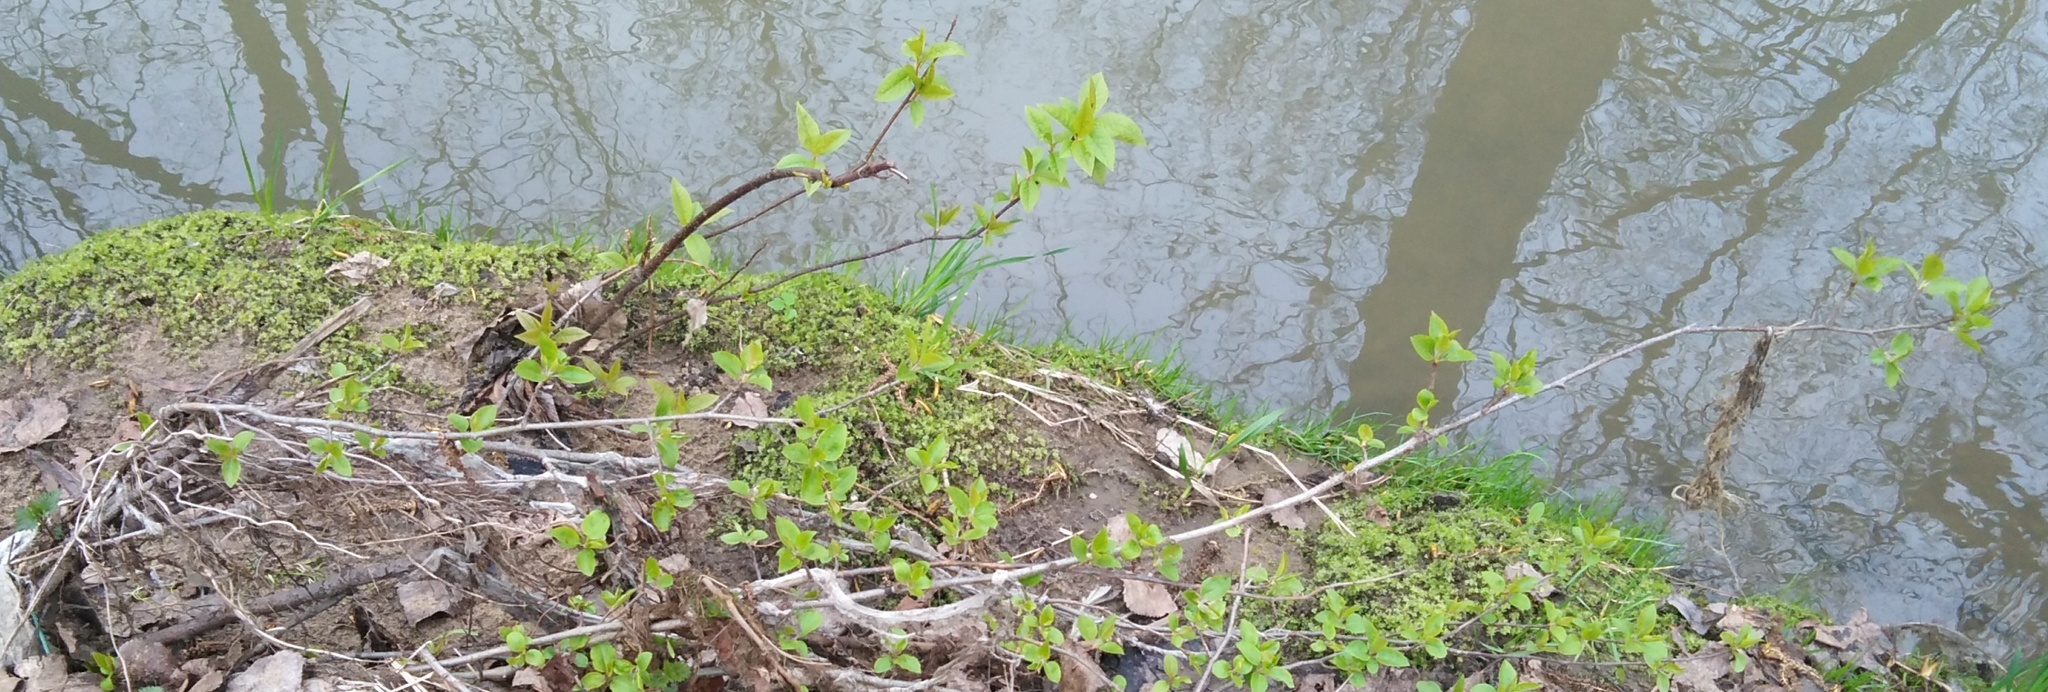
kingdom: Plantae
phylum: Tracheophyta
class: Magnoliopsida
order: Rosales
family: Rosaceae
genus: Prunus
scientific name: Prunus padus
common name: Bird cherry
